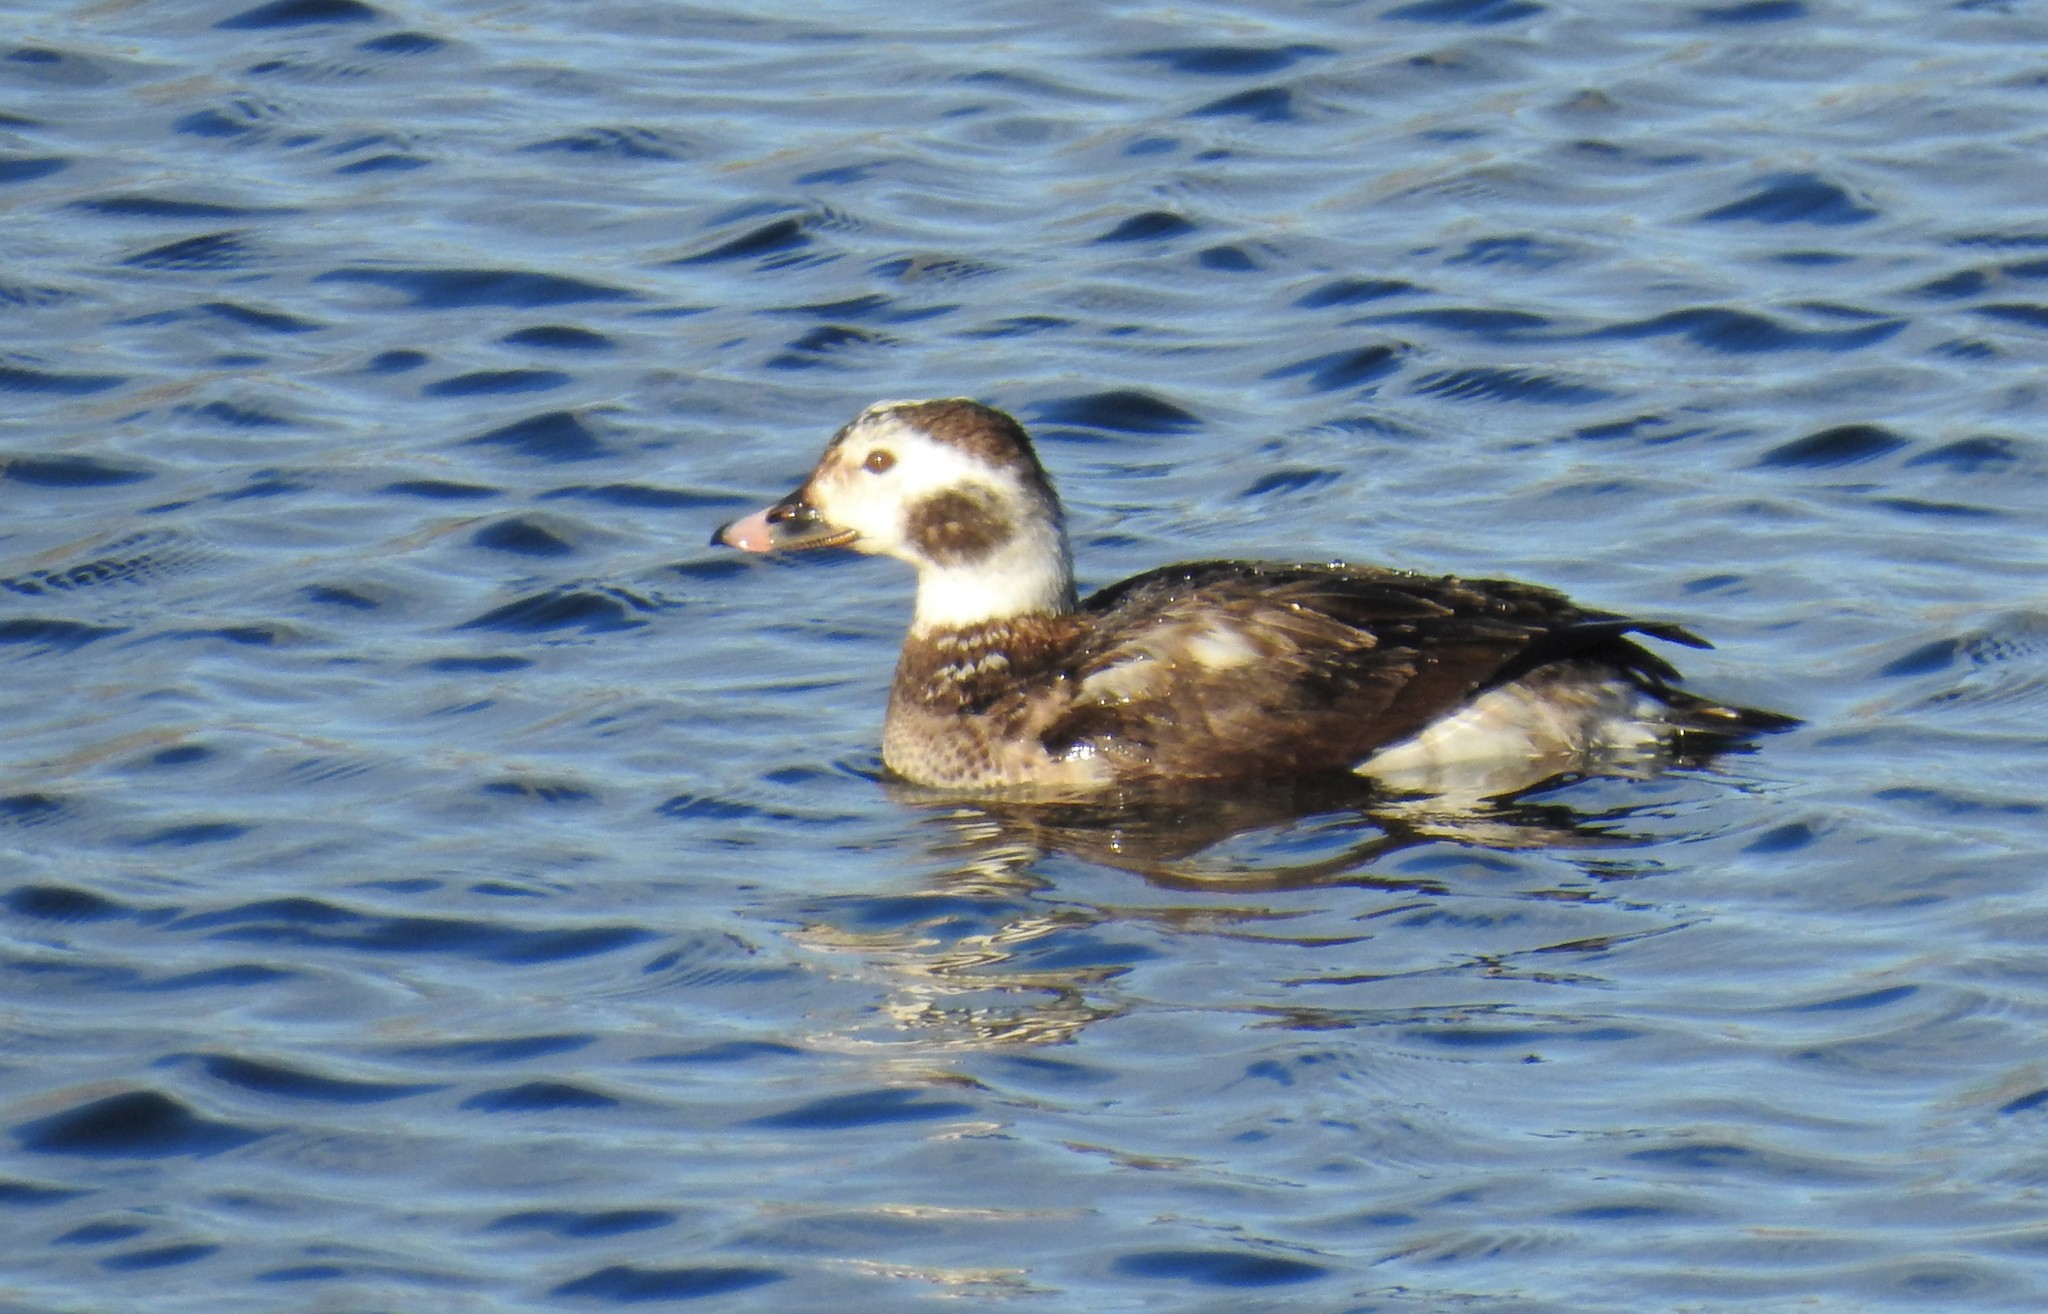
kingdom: Animalia
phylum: Chordata
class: Aves
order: Anseriformes
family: Anatidae
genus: Clangula
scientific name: Clangula hyemalis
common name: Long-tailed duck
